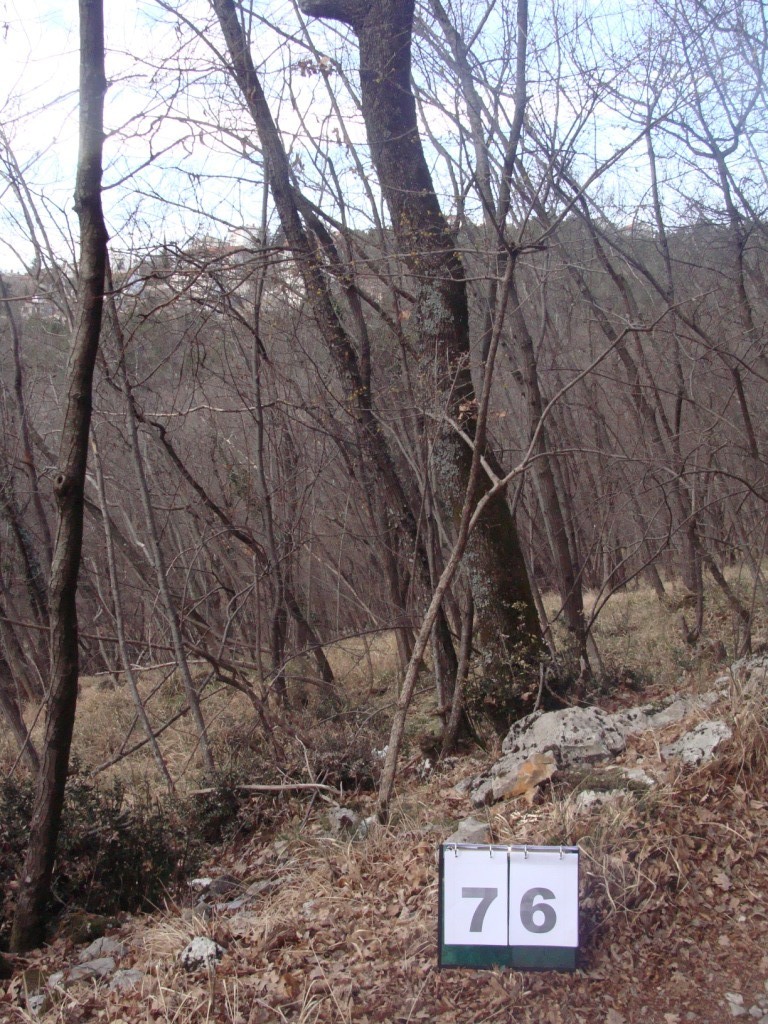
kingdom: Plantae
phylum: Tracheophyta
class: Magnoliopsida
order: Cornales
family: Cornaceae
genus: Cornus
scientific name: Cornus mas
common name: Cornelian-cherry
